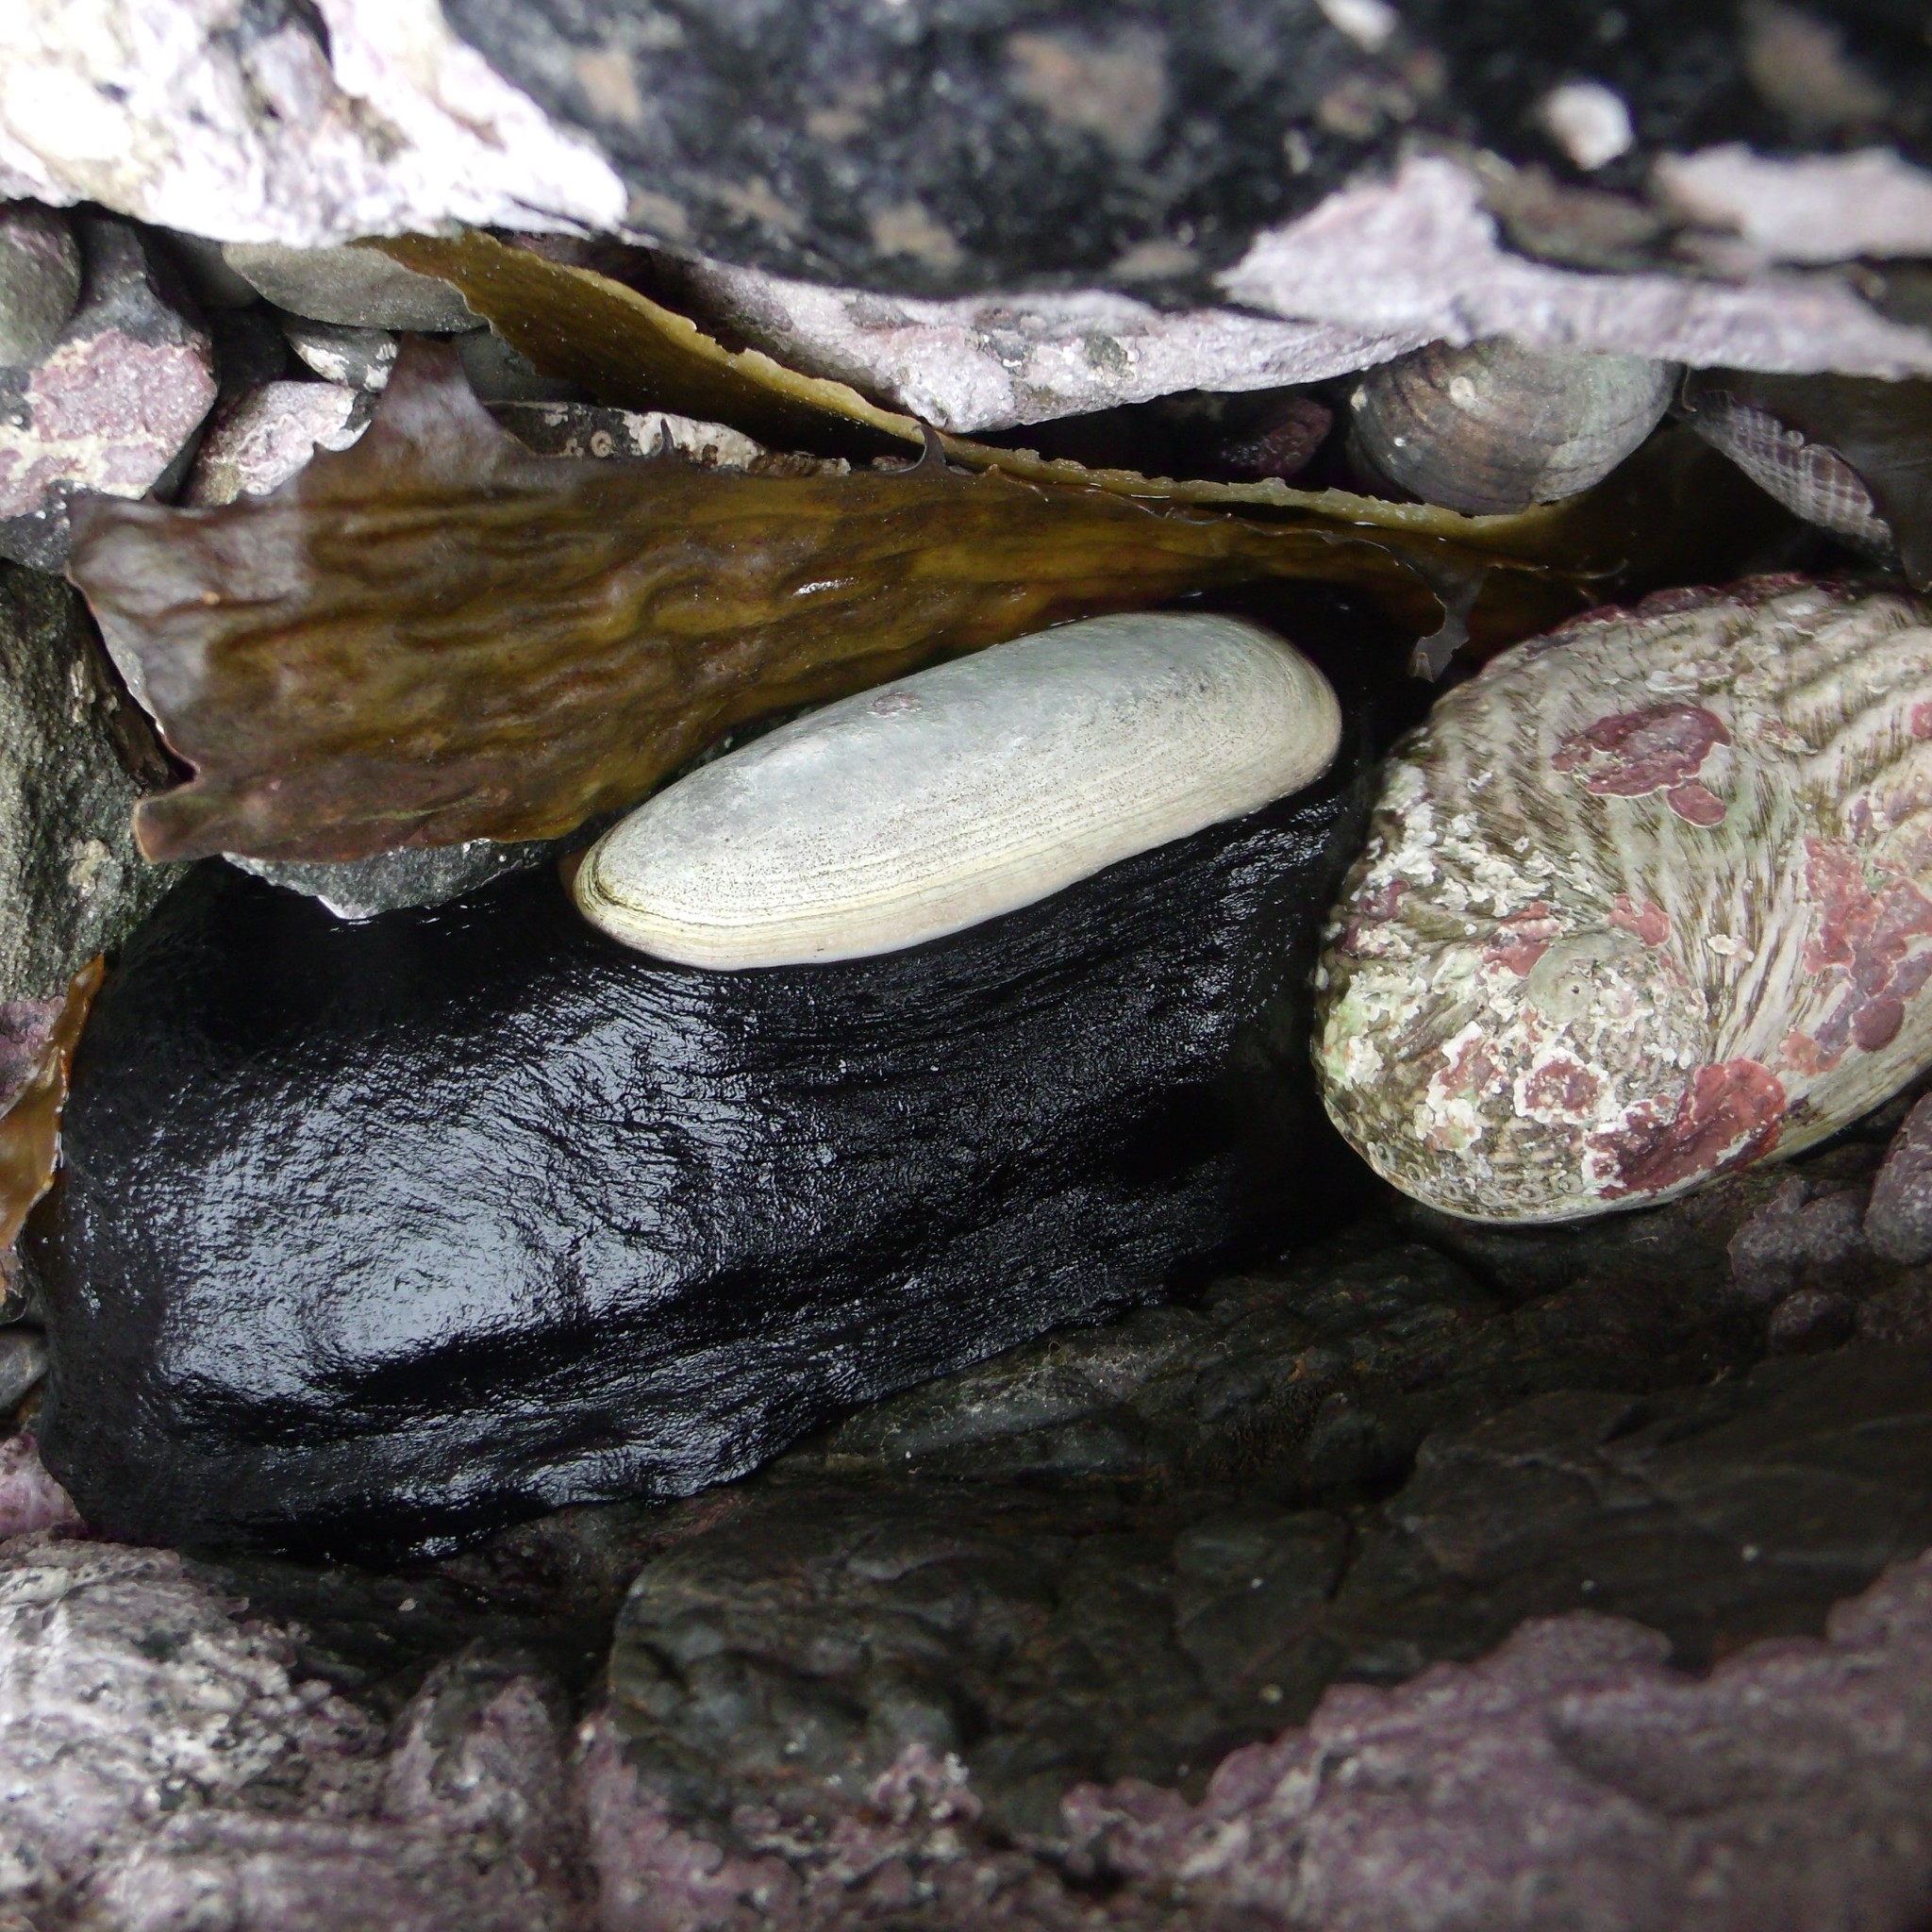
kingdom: Animalia
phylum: Mollusca
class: Gastropoda
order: Lepetellida
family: Fissurellidae
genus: Scutus
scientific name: Scutus breviculus
